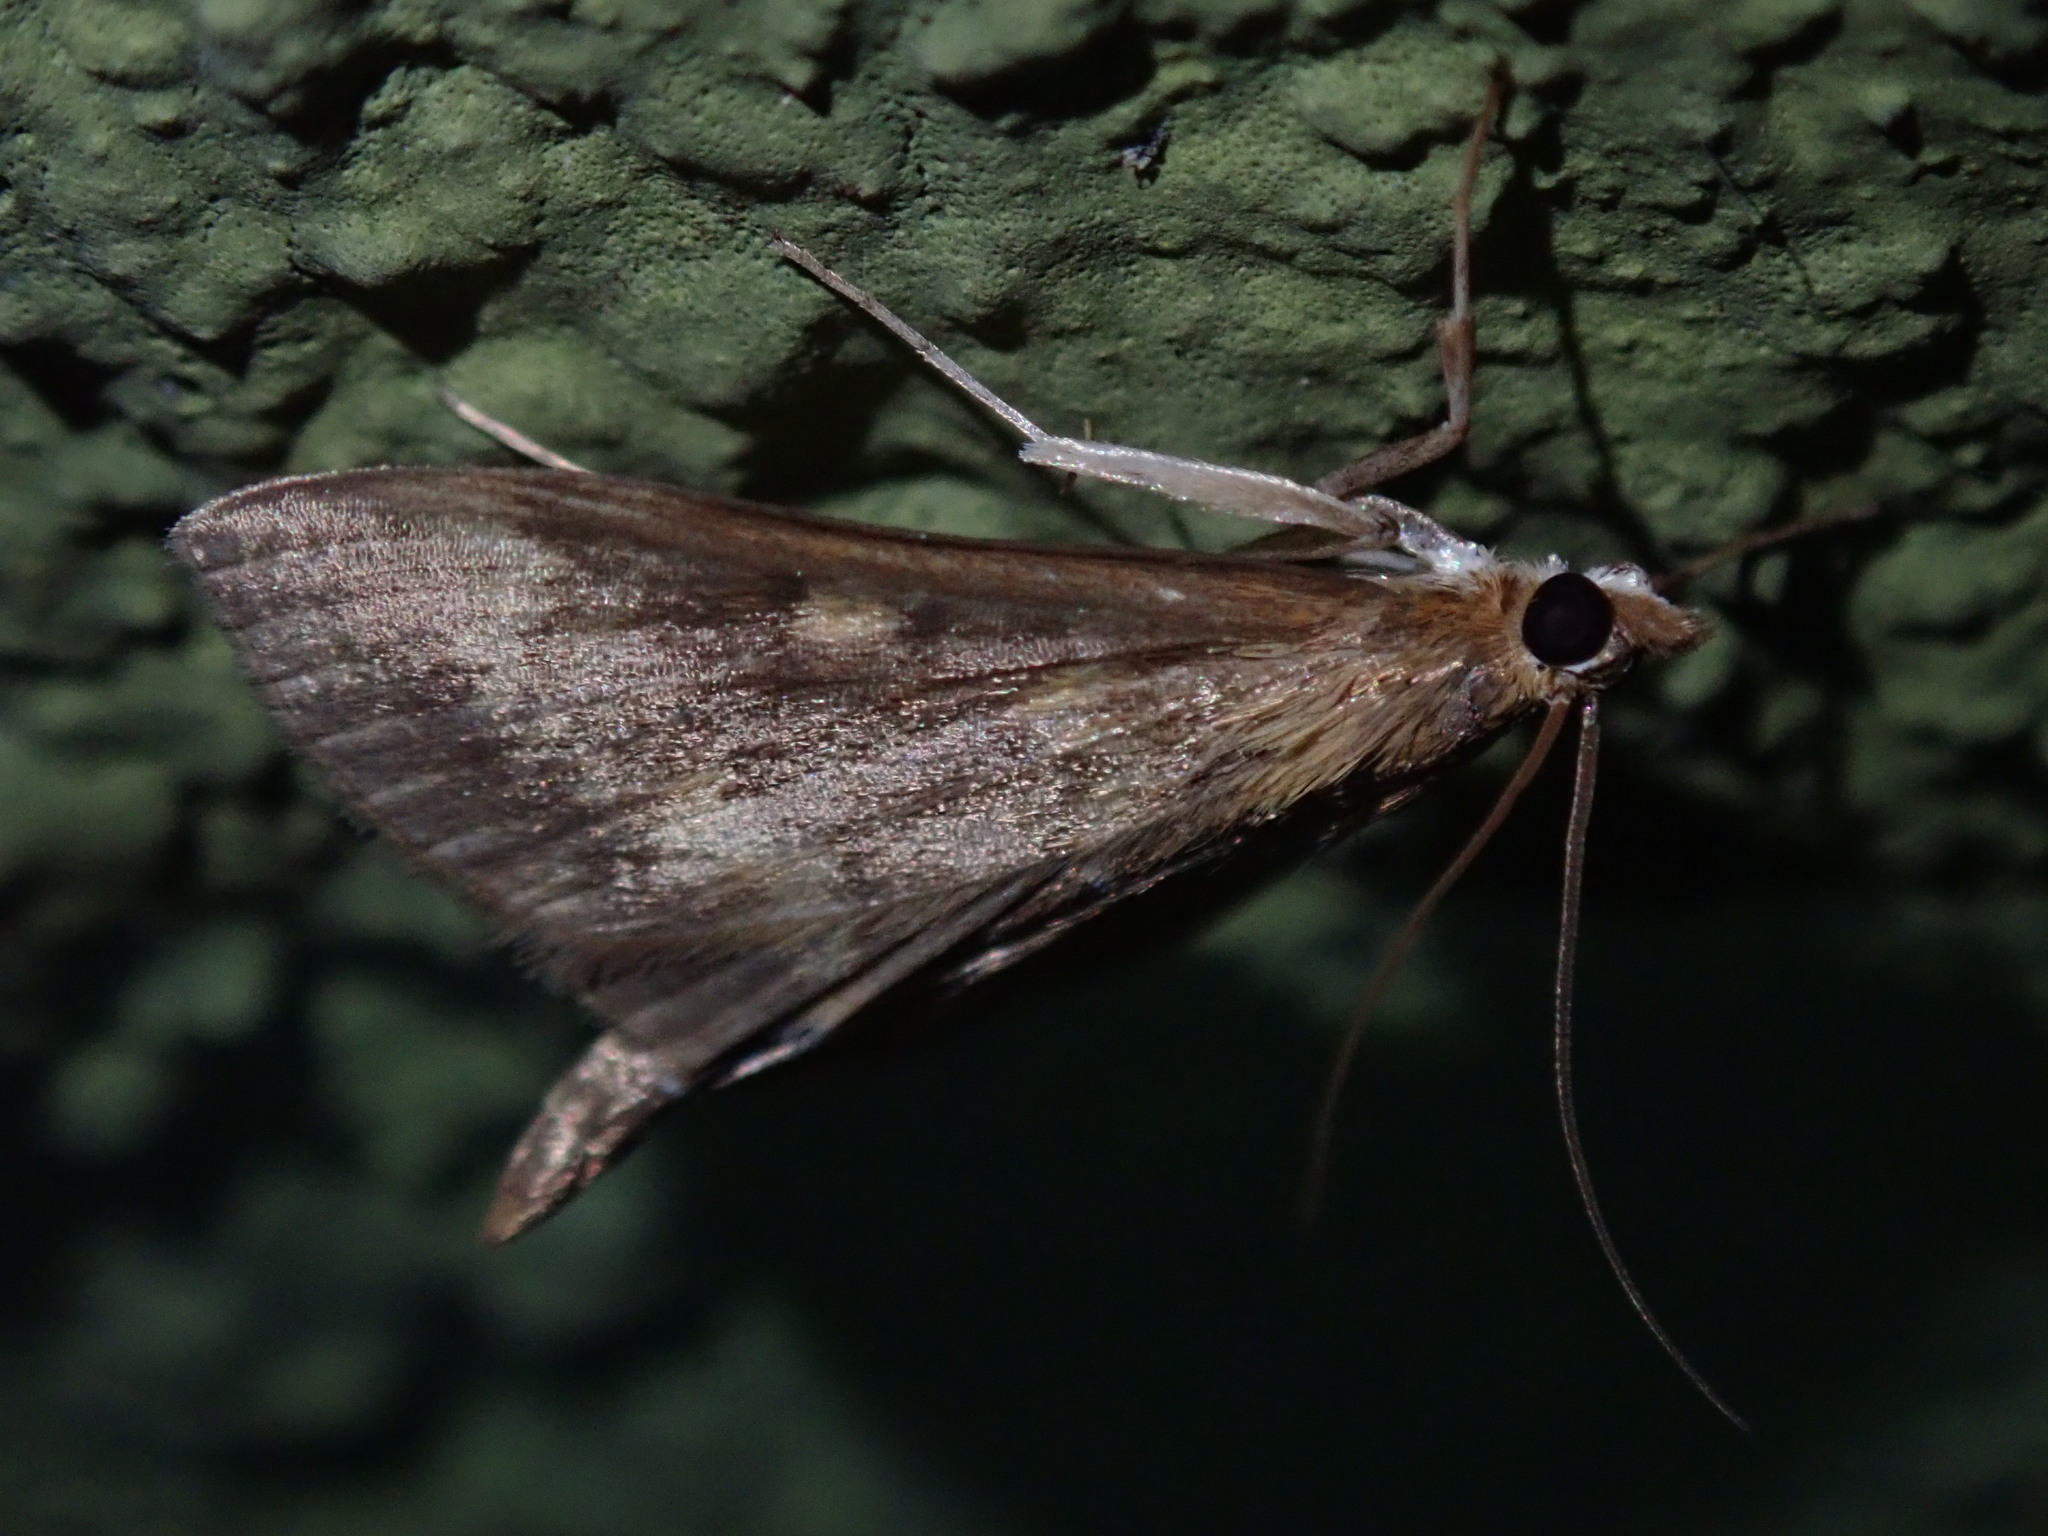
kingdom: Animalia
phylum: Arthropoda
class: Insecta
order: Lepidoptera
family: Crambidae
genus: Ostrinia
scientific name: Ostrinia nubilalis
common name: European corn borer
